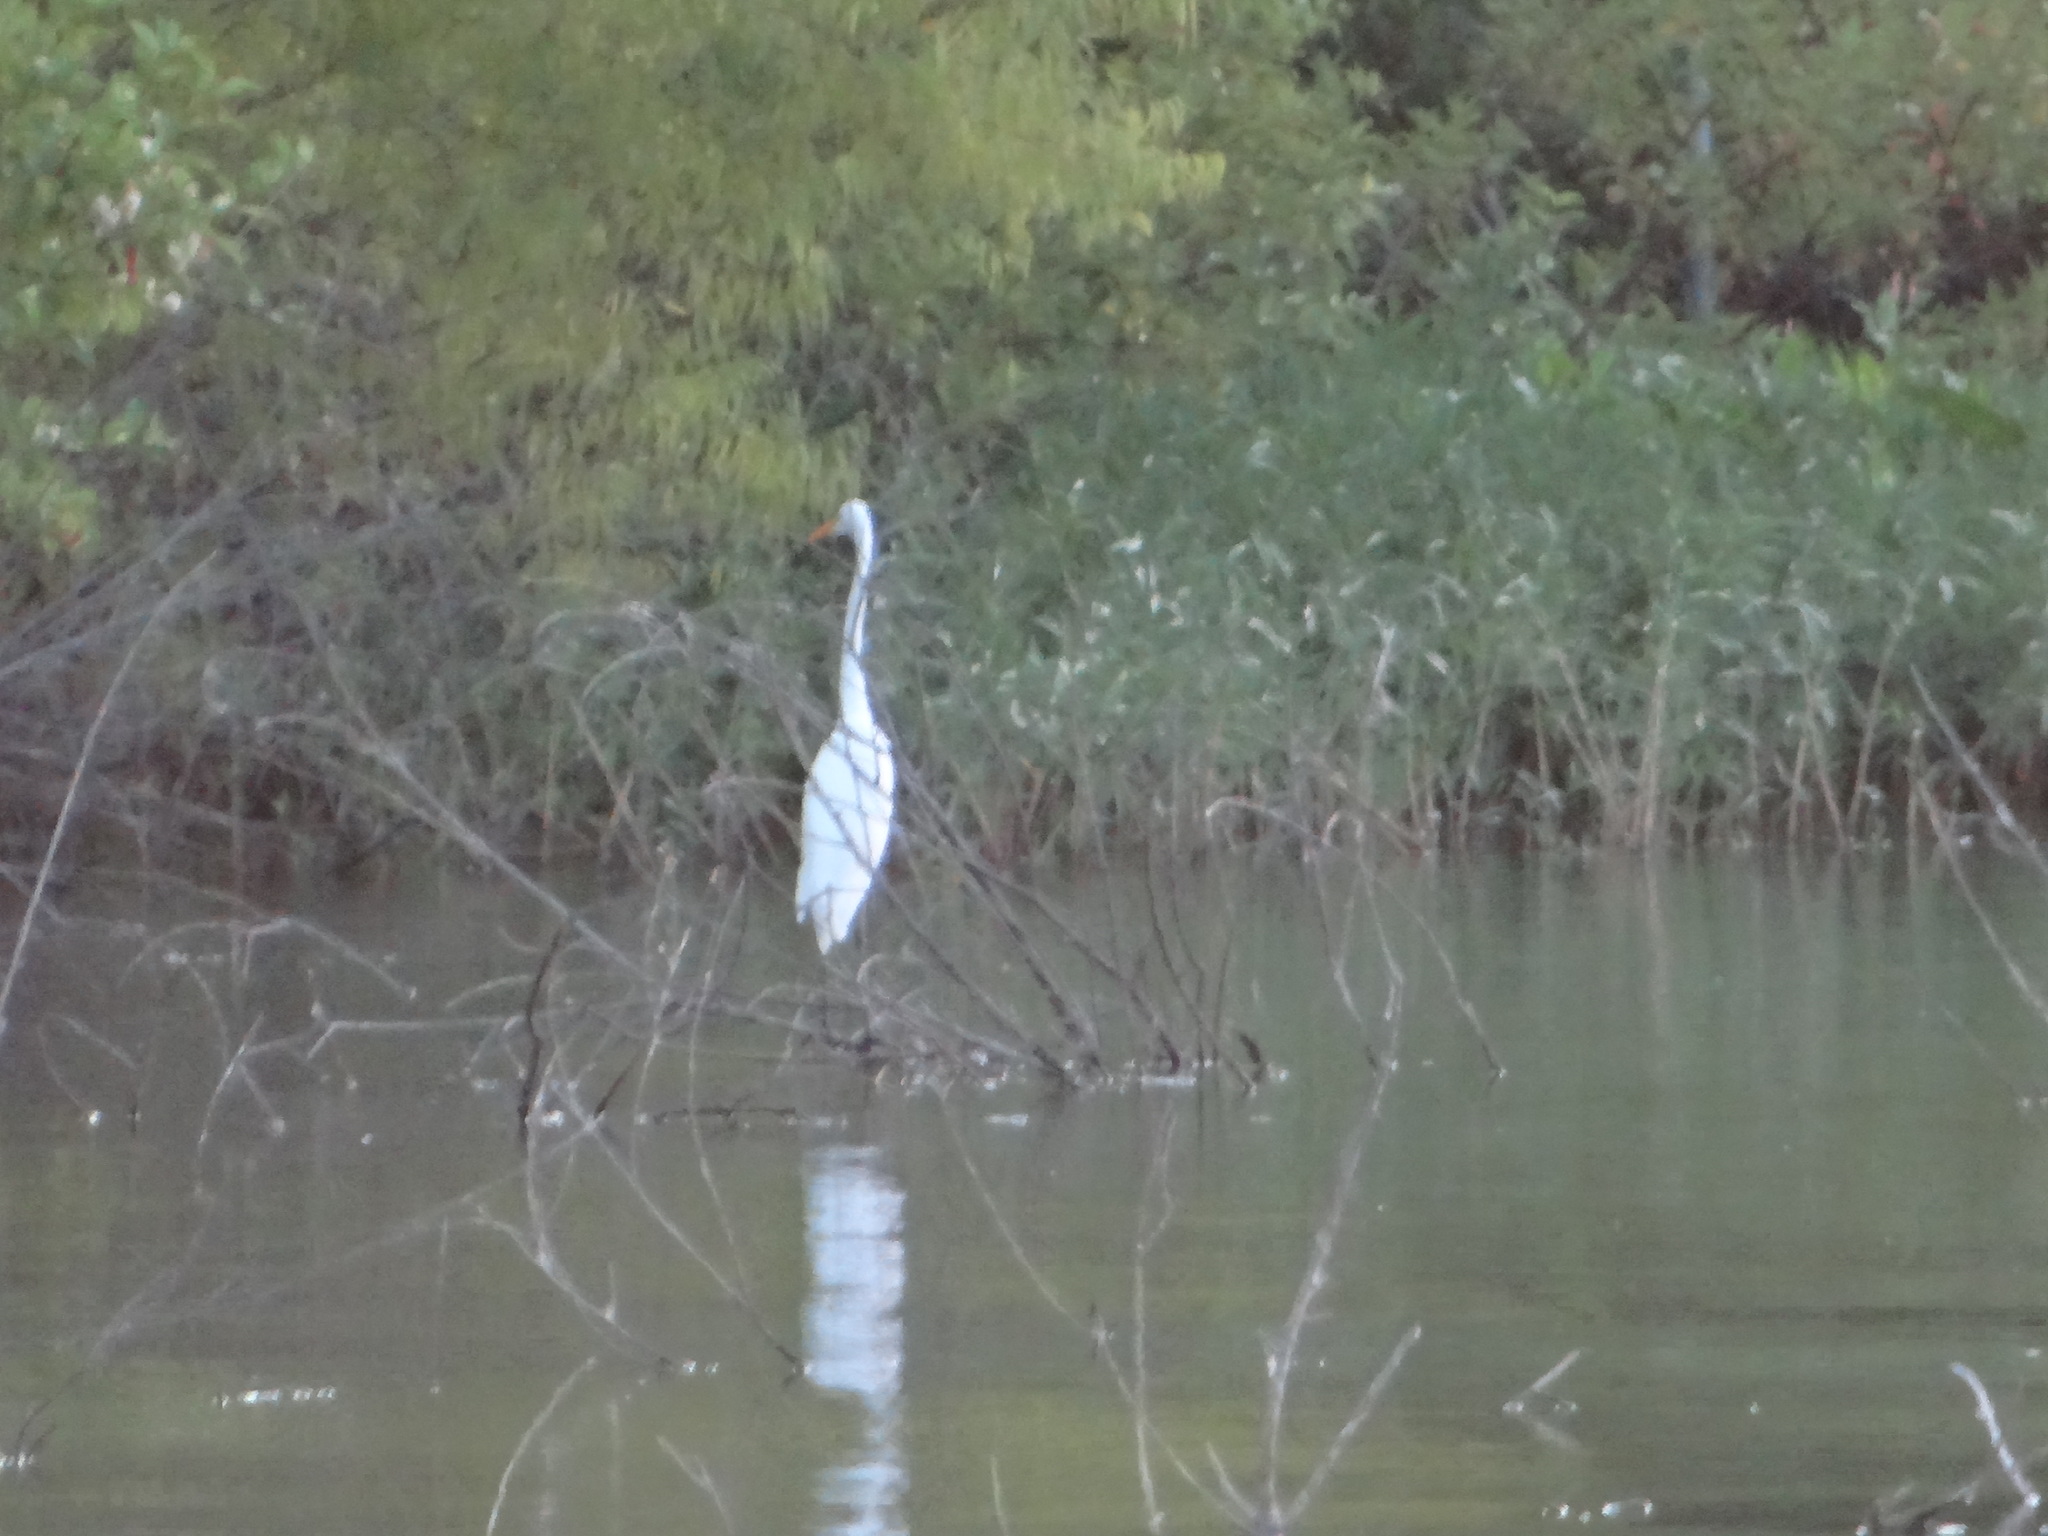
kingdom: Animalia
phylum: Chordata
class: Aves
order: Pelecaniformes
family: Ardeidae
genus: Ardea
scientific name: Ardea alba
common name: Great egret
